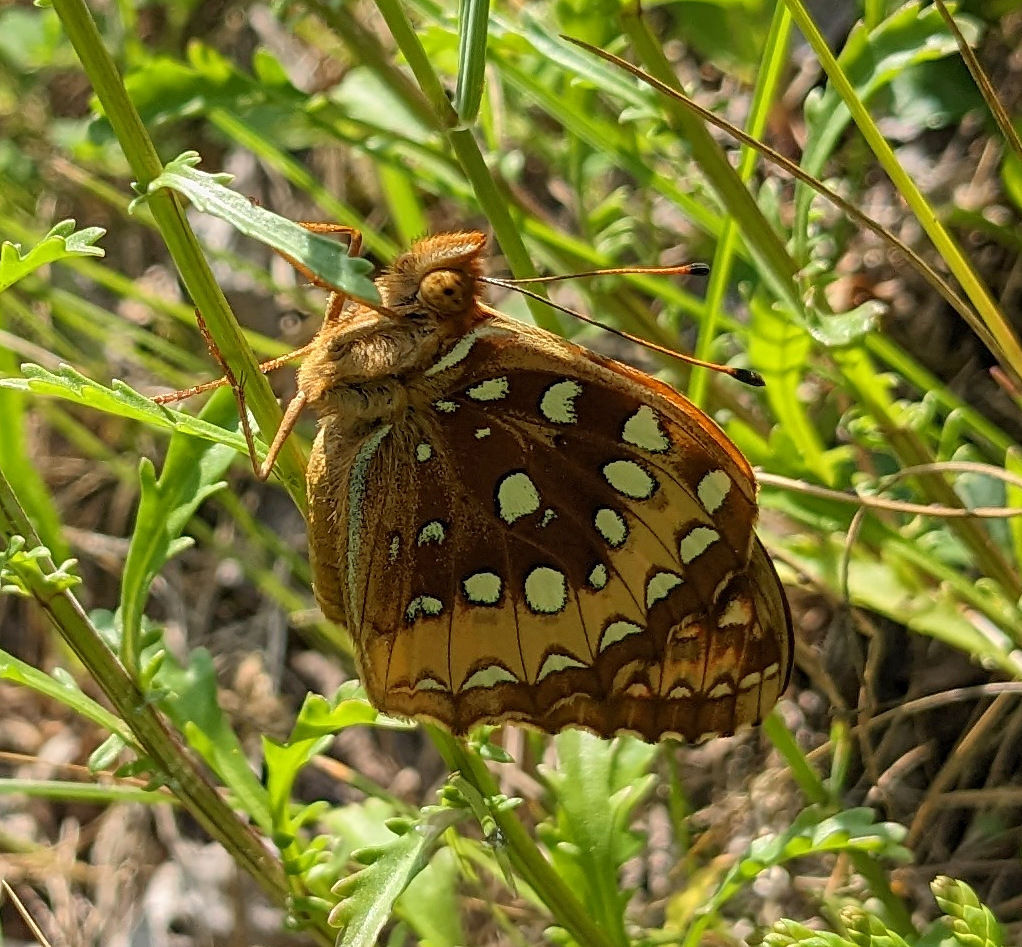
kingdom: Animalia
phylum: Arthropoda
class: Insecta
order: Lepidoptera
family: Nymphalidae
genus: Speyeria
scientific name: Speyeria cybele
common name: Great spangled fritillary
